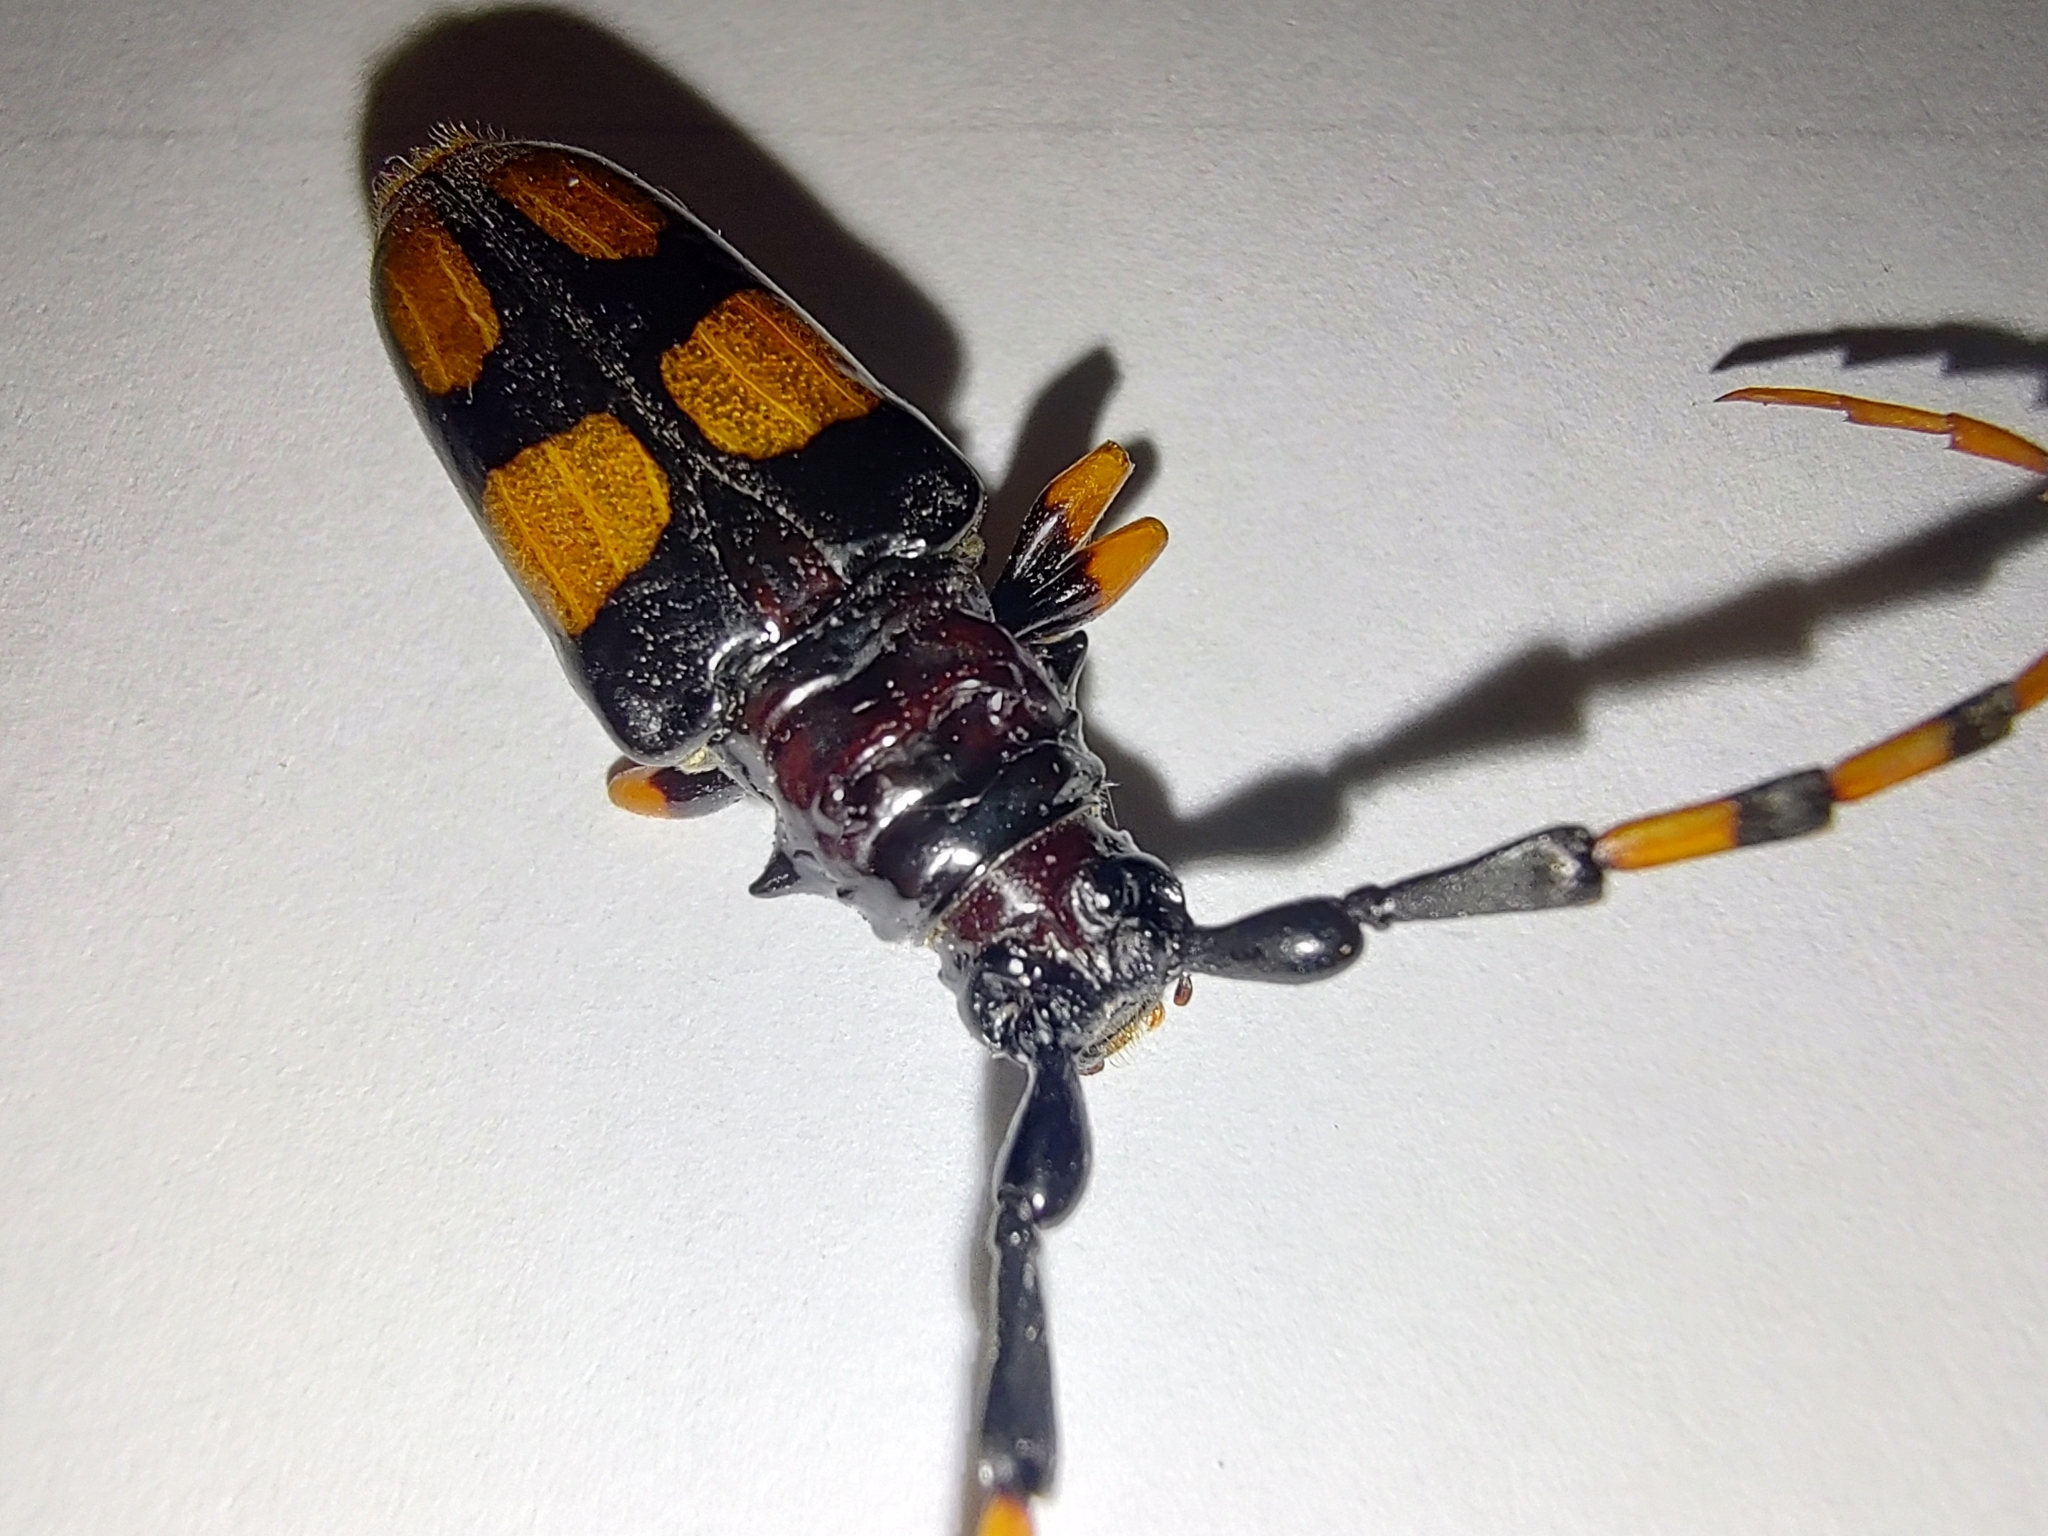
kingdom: Animalia
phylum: Arthropoda
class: Insecta
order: Coleoptera
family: Cerambycidae
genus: Trachyderes
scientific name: Trachyderes mandibularis
